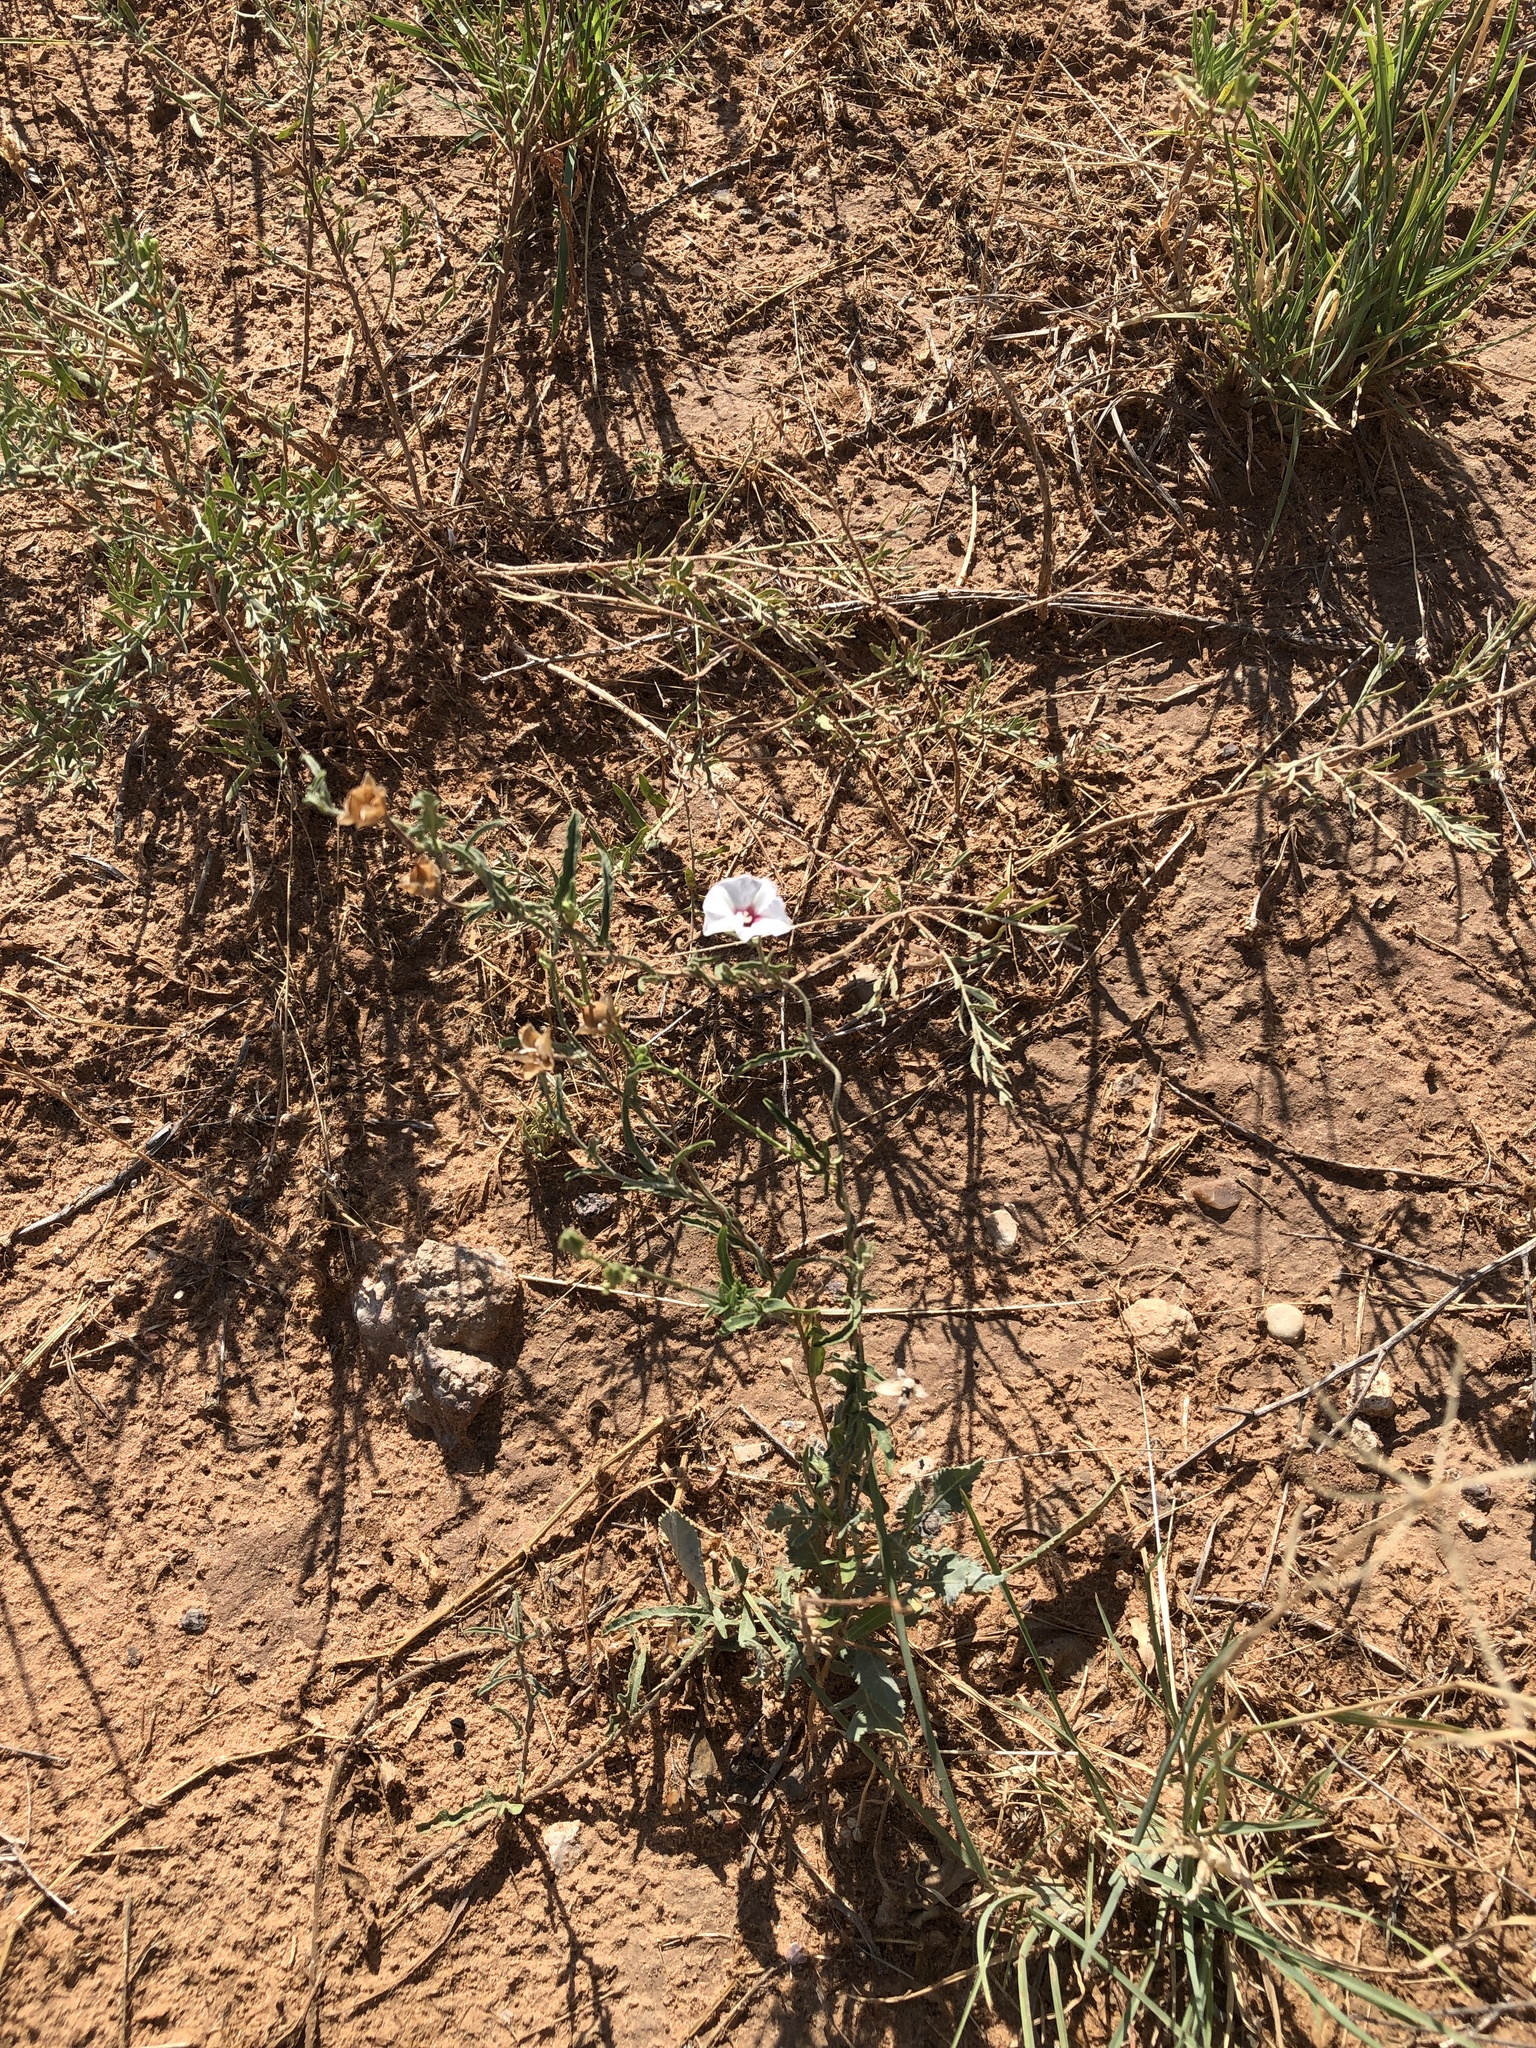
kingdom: Plantae
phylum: Tracheophyta
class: Magnoliopsida
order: Solanales
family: Convolvulaceae
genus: Convolvulus
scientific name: Convolvulus equitans
